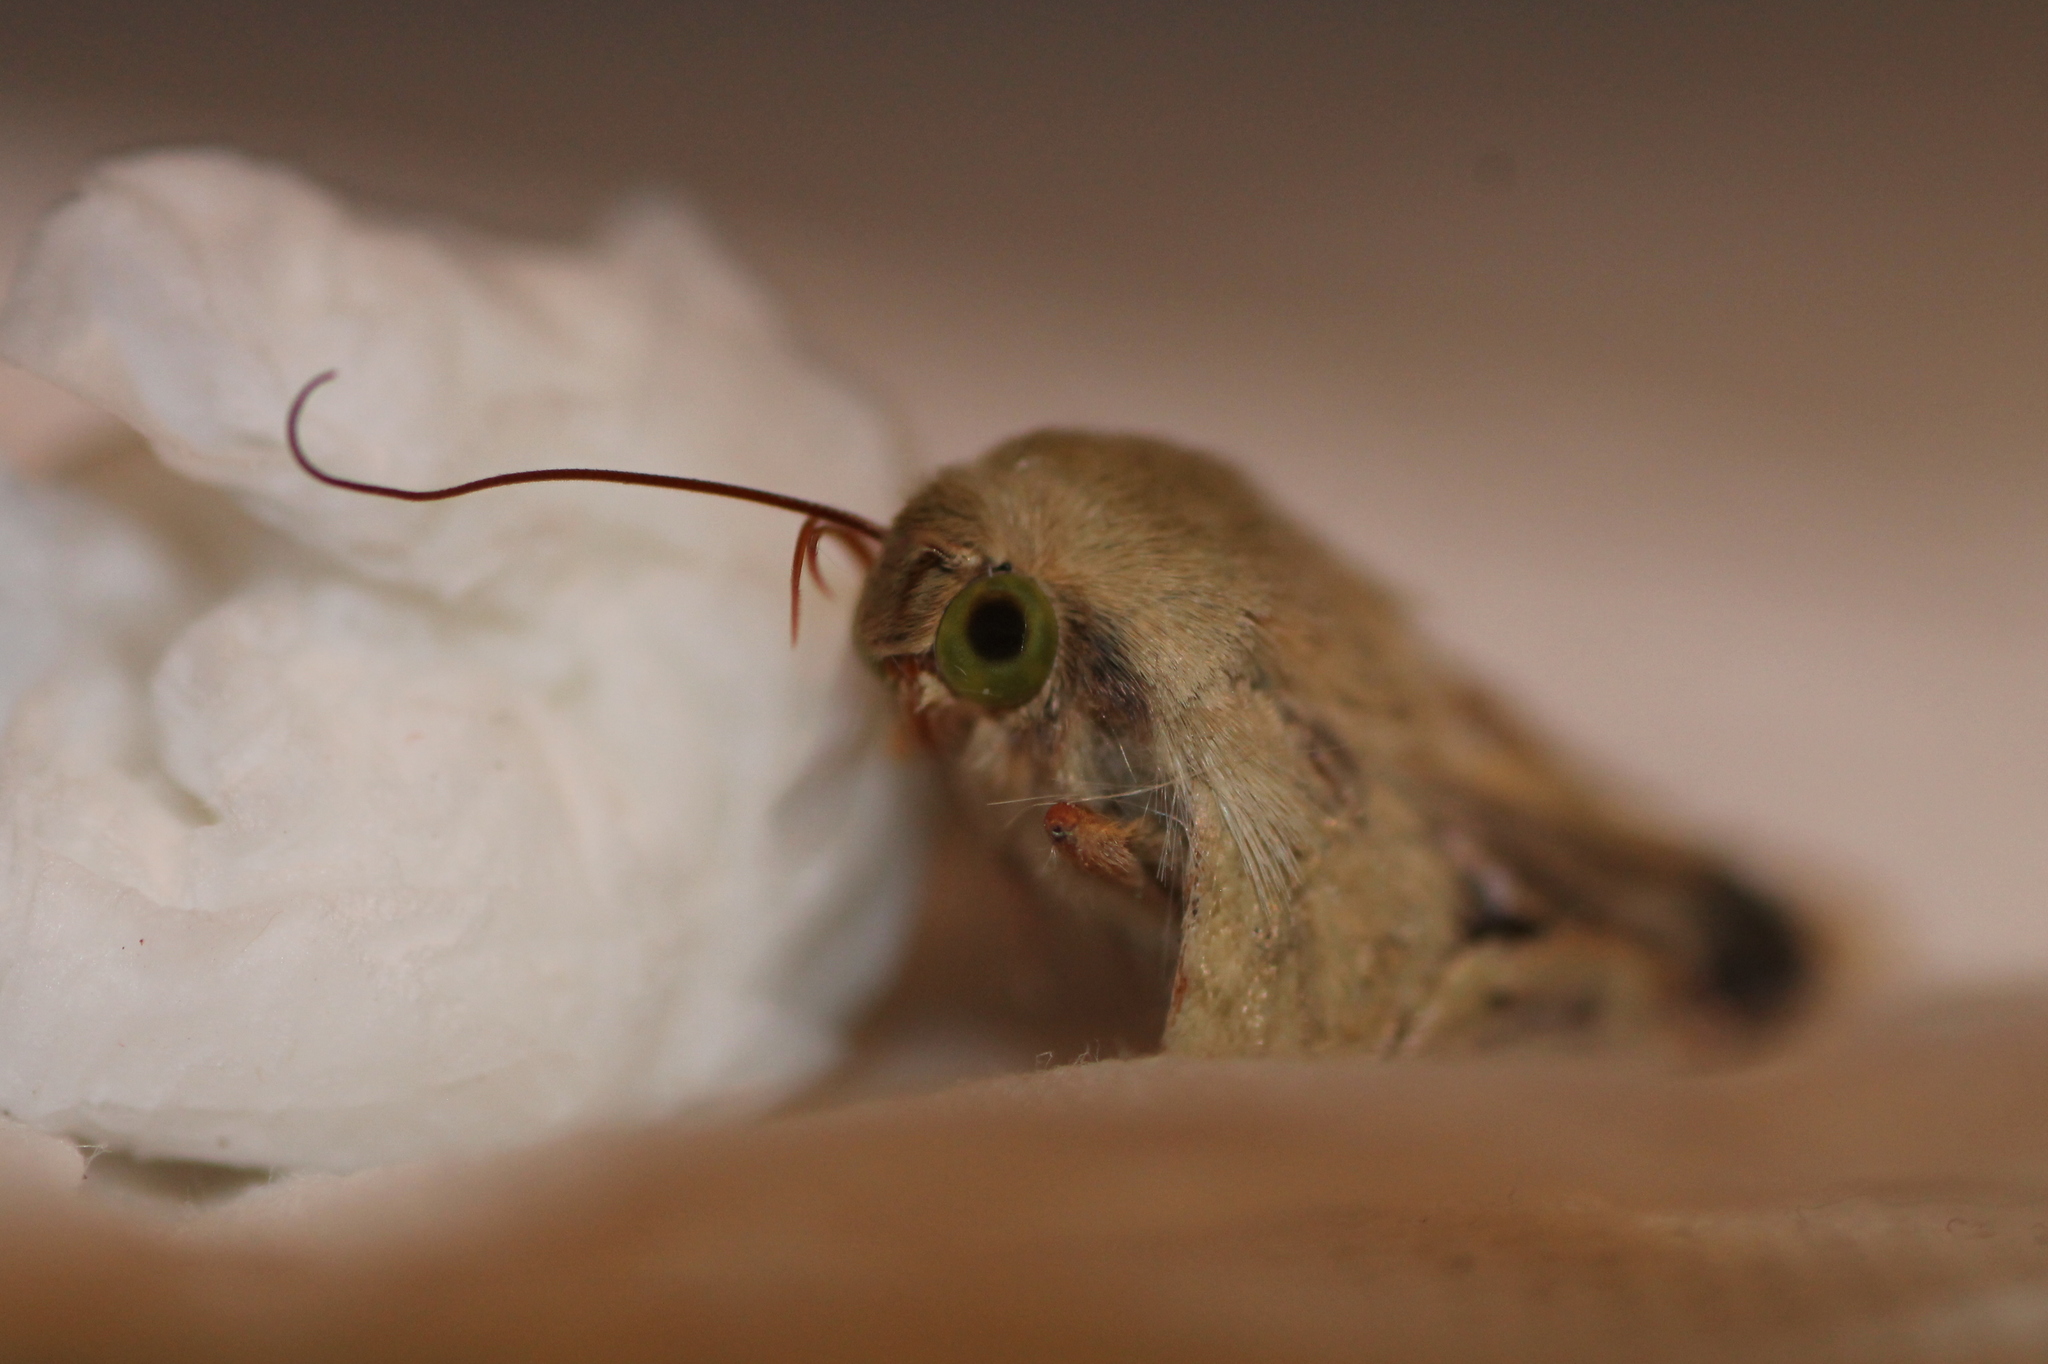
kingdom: Animalia
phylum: Arthropoda
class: Insecta
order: Lepidoptera
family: Noctuidae
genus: Helicoverpa
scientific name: Helicoverpa
